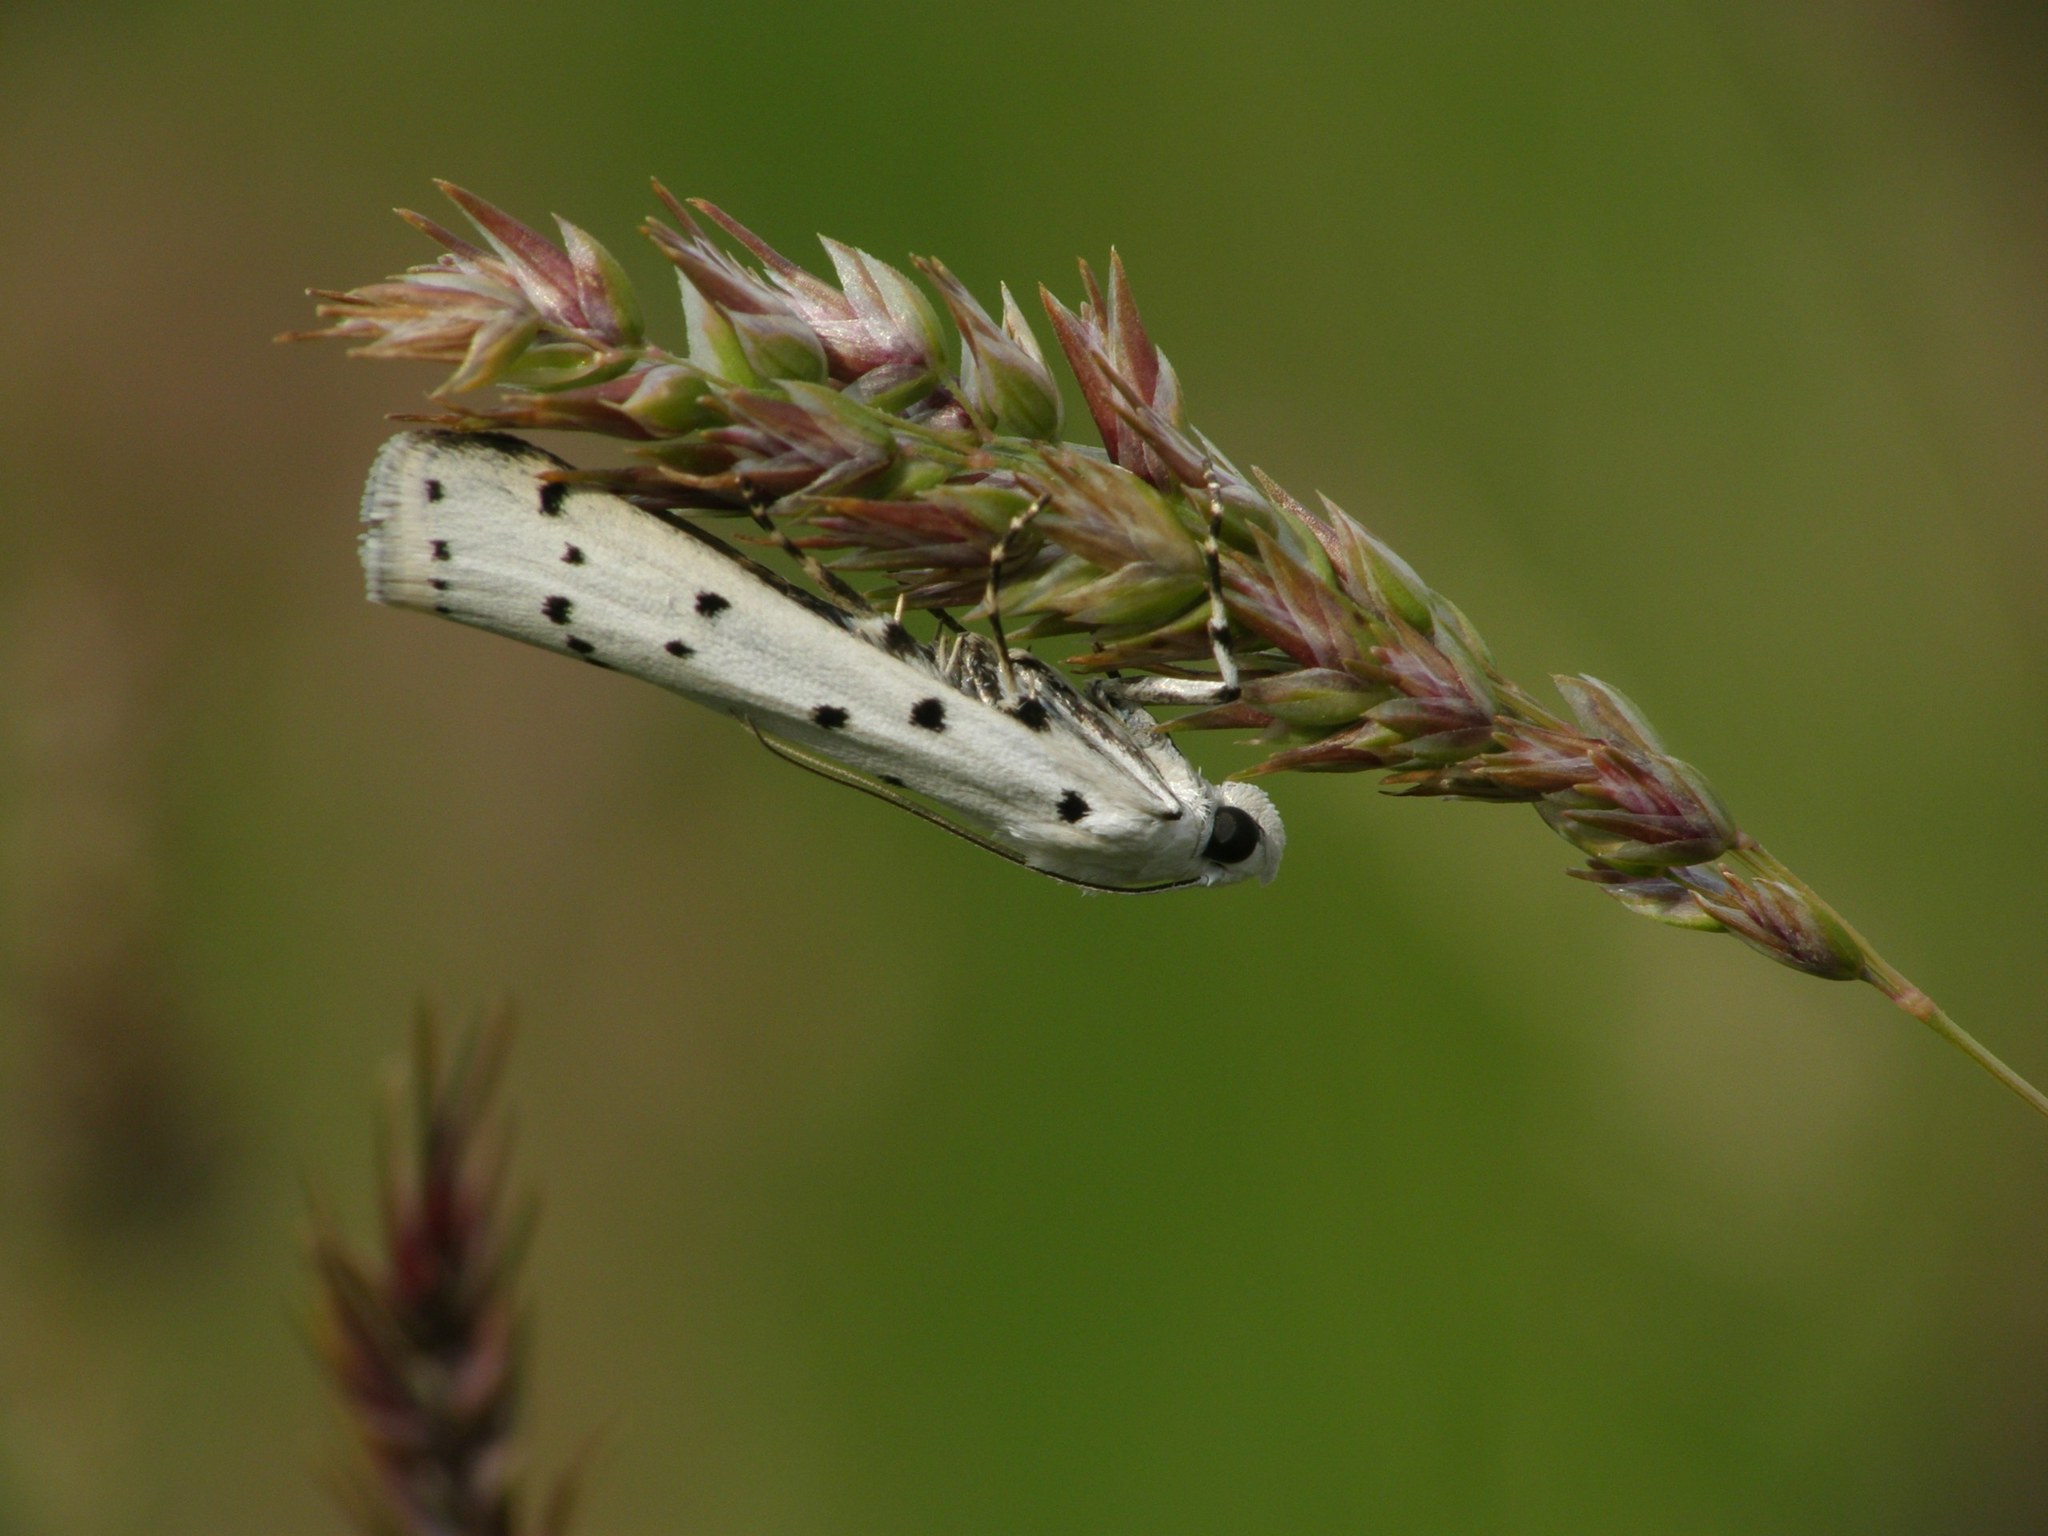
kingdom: Animalia
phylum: Arthropoda
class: Insecta
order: Lepidoptera
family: Pyralidae
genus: Myelois
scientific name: Myelois circumvoluta
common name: Thistle ermine
